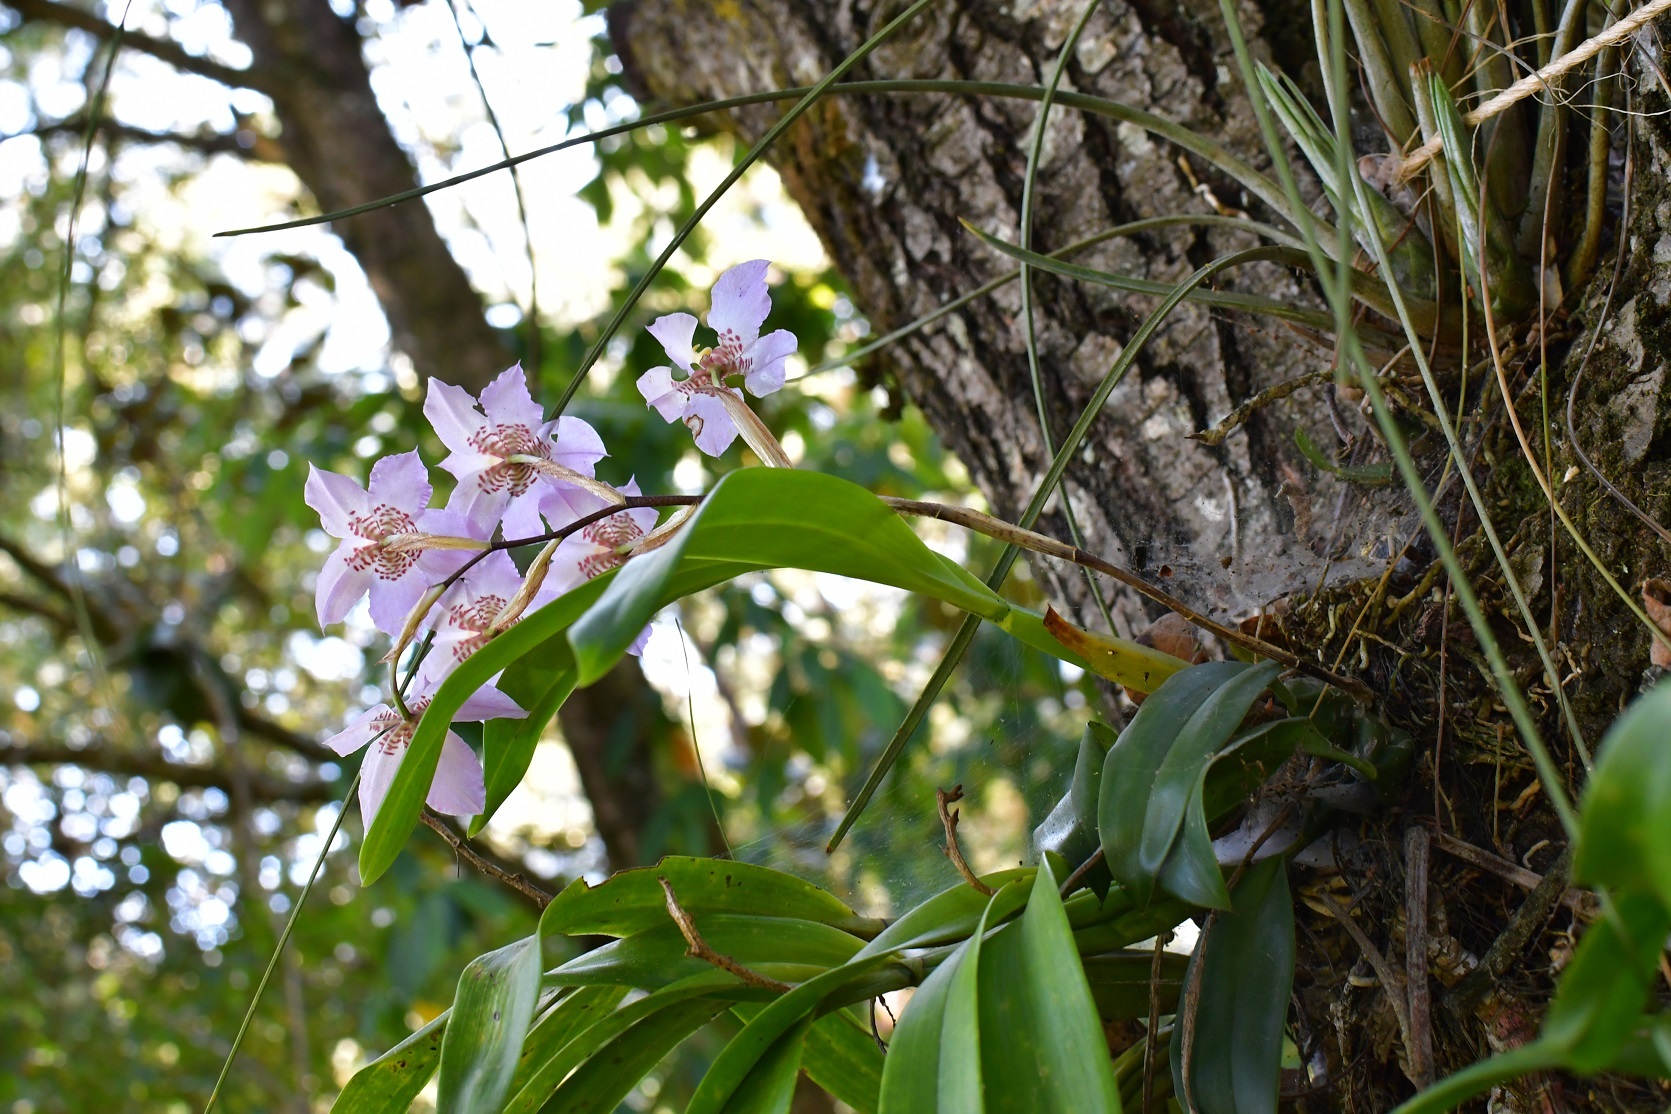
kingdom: Plantae
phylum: Tracheophyta
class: Liliopsida
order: Asparagales
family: Orchidaceae
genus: Rhynchostele
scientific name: Rhynchostele cervantesii
